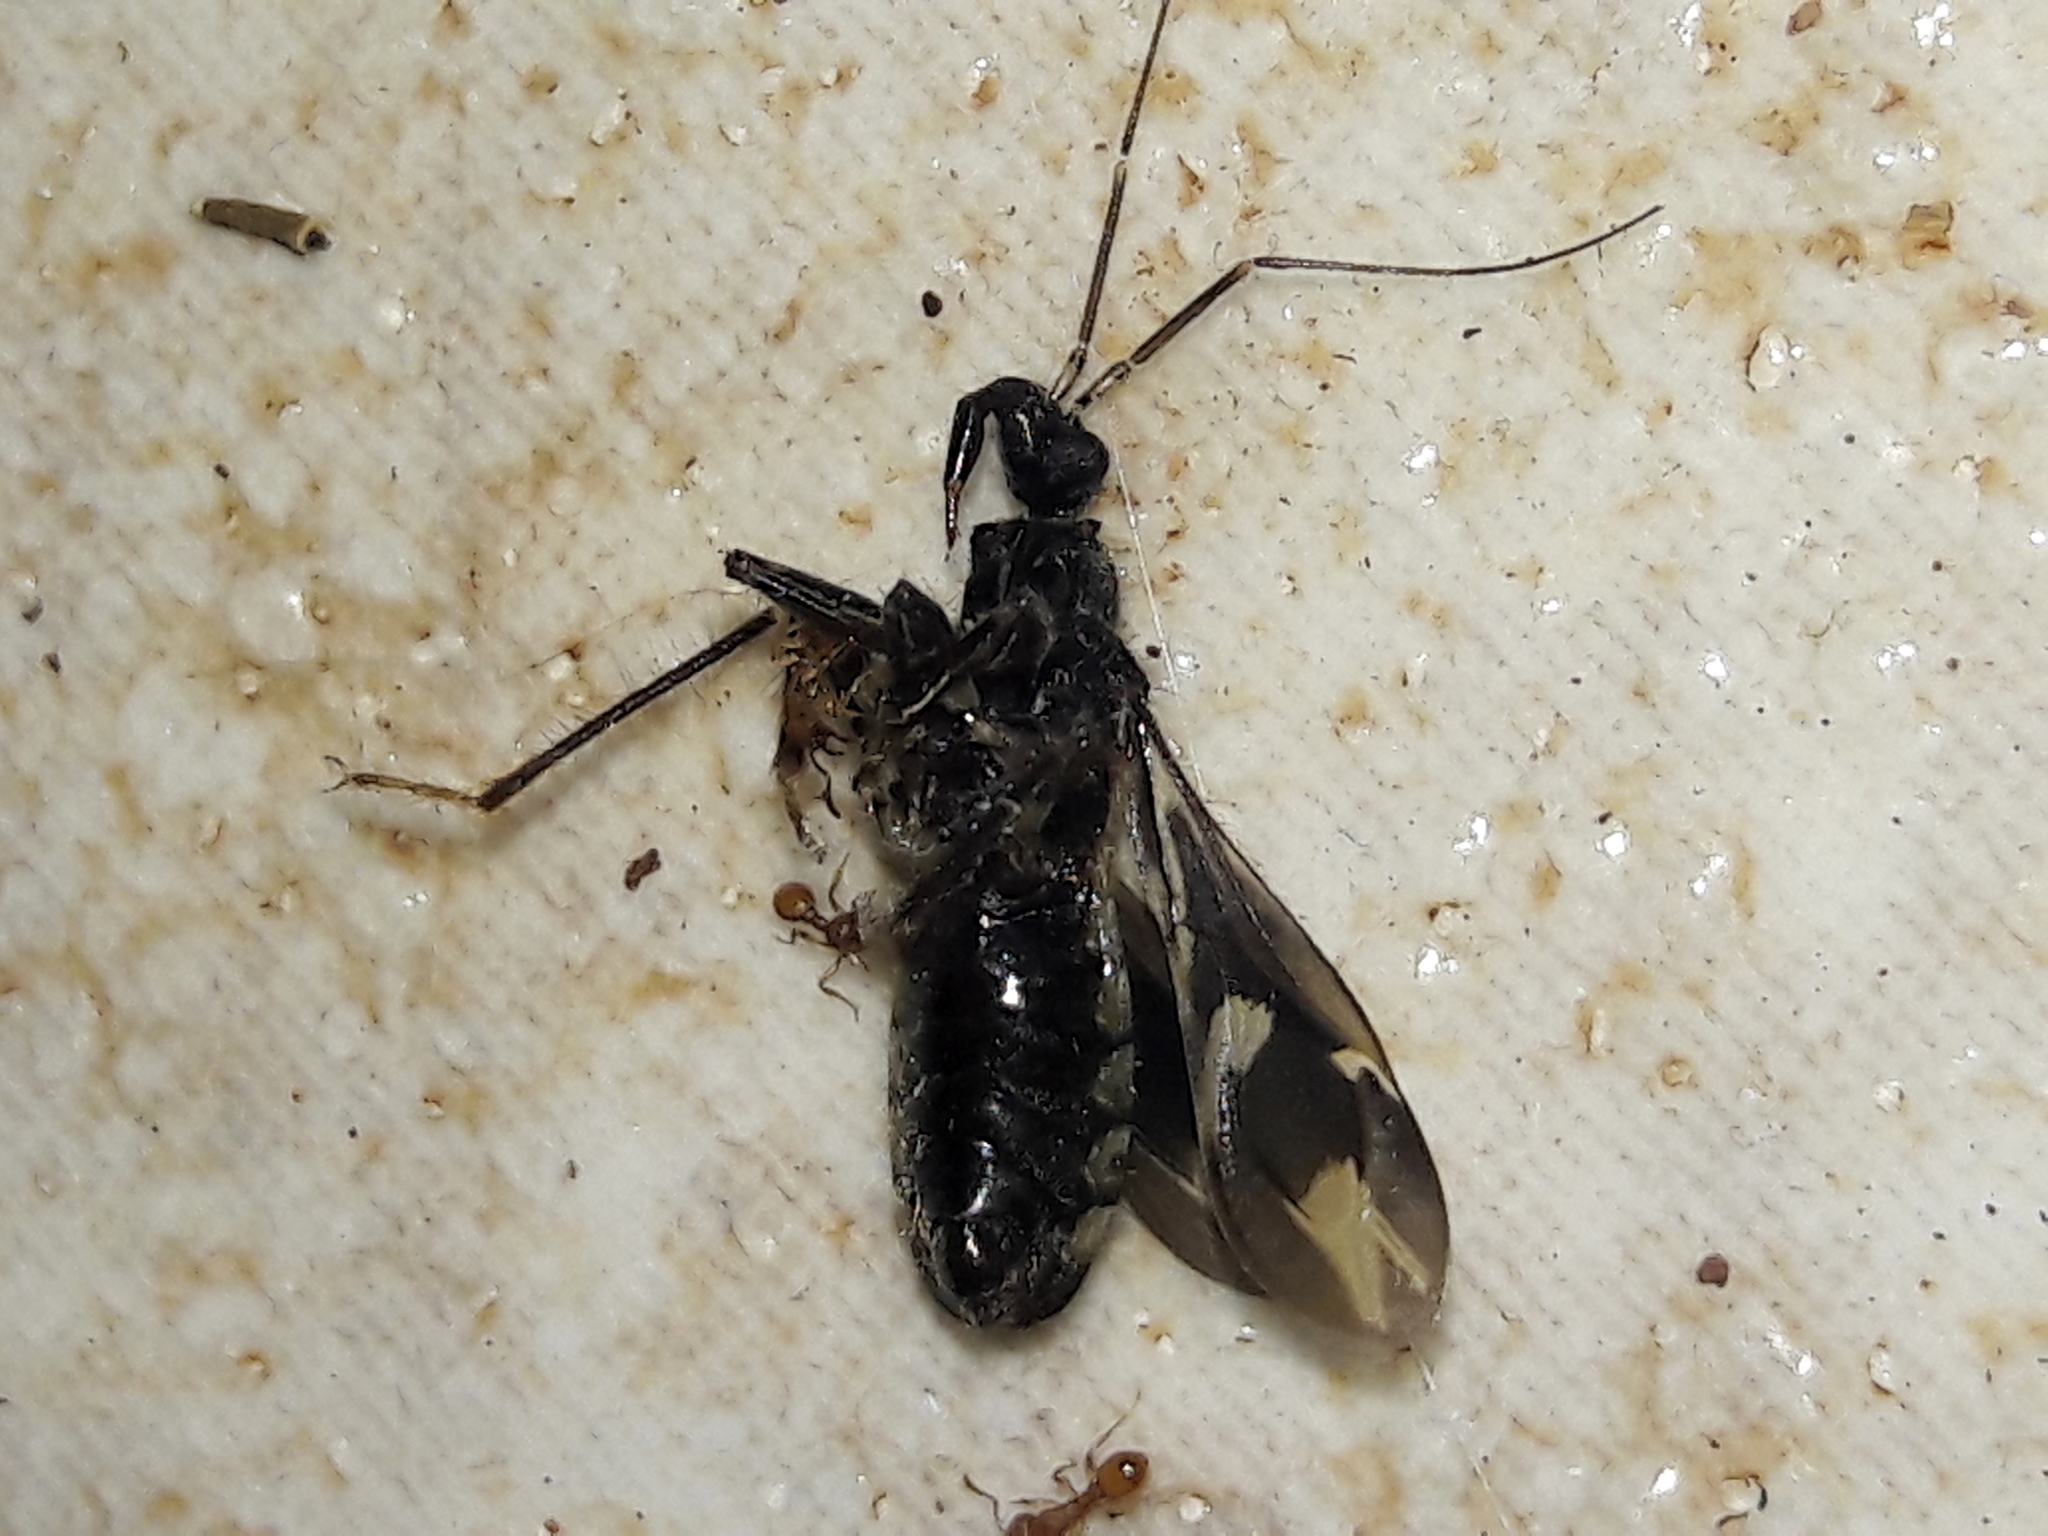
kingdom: Animalia
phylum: Arthropoda
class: Insecta
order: Hemiptera
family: Reduviidae
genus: Rasahus
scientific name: Rasahus sulcicollis
